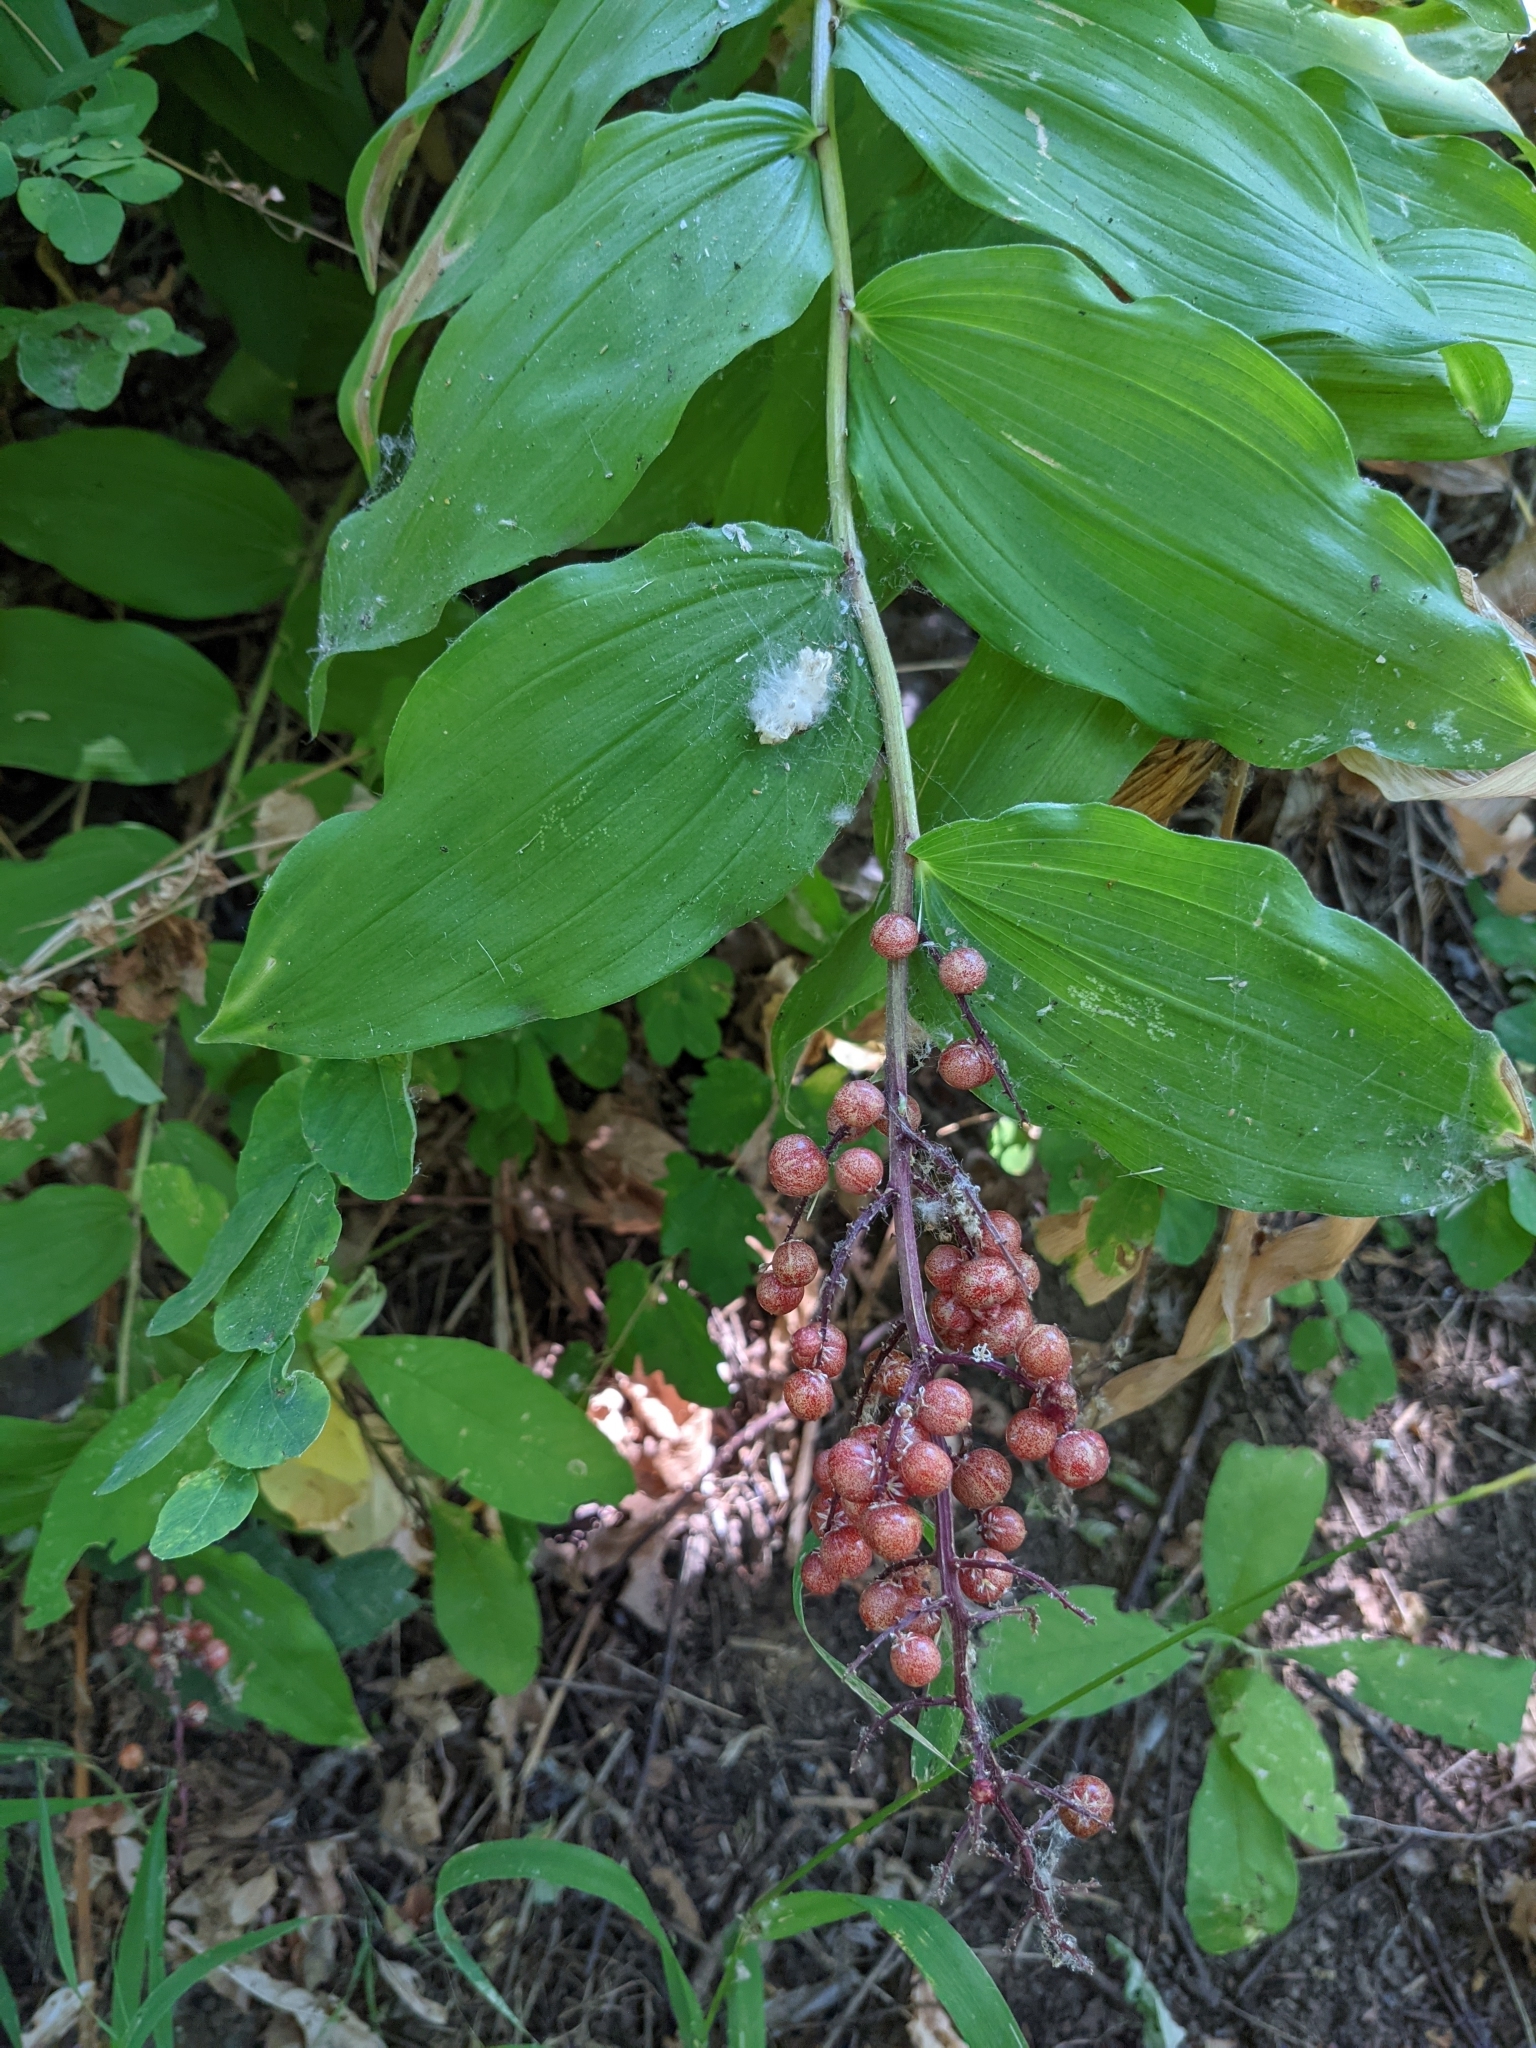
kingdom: Plantae
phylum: Tracheophyta
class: Liliopsida
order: Asparagales
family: Asparagaceae
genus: Maianthemum
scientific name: Maianthemum racemosum
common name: False spikenard
